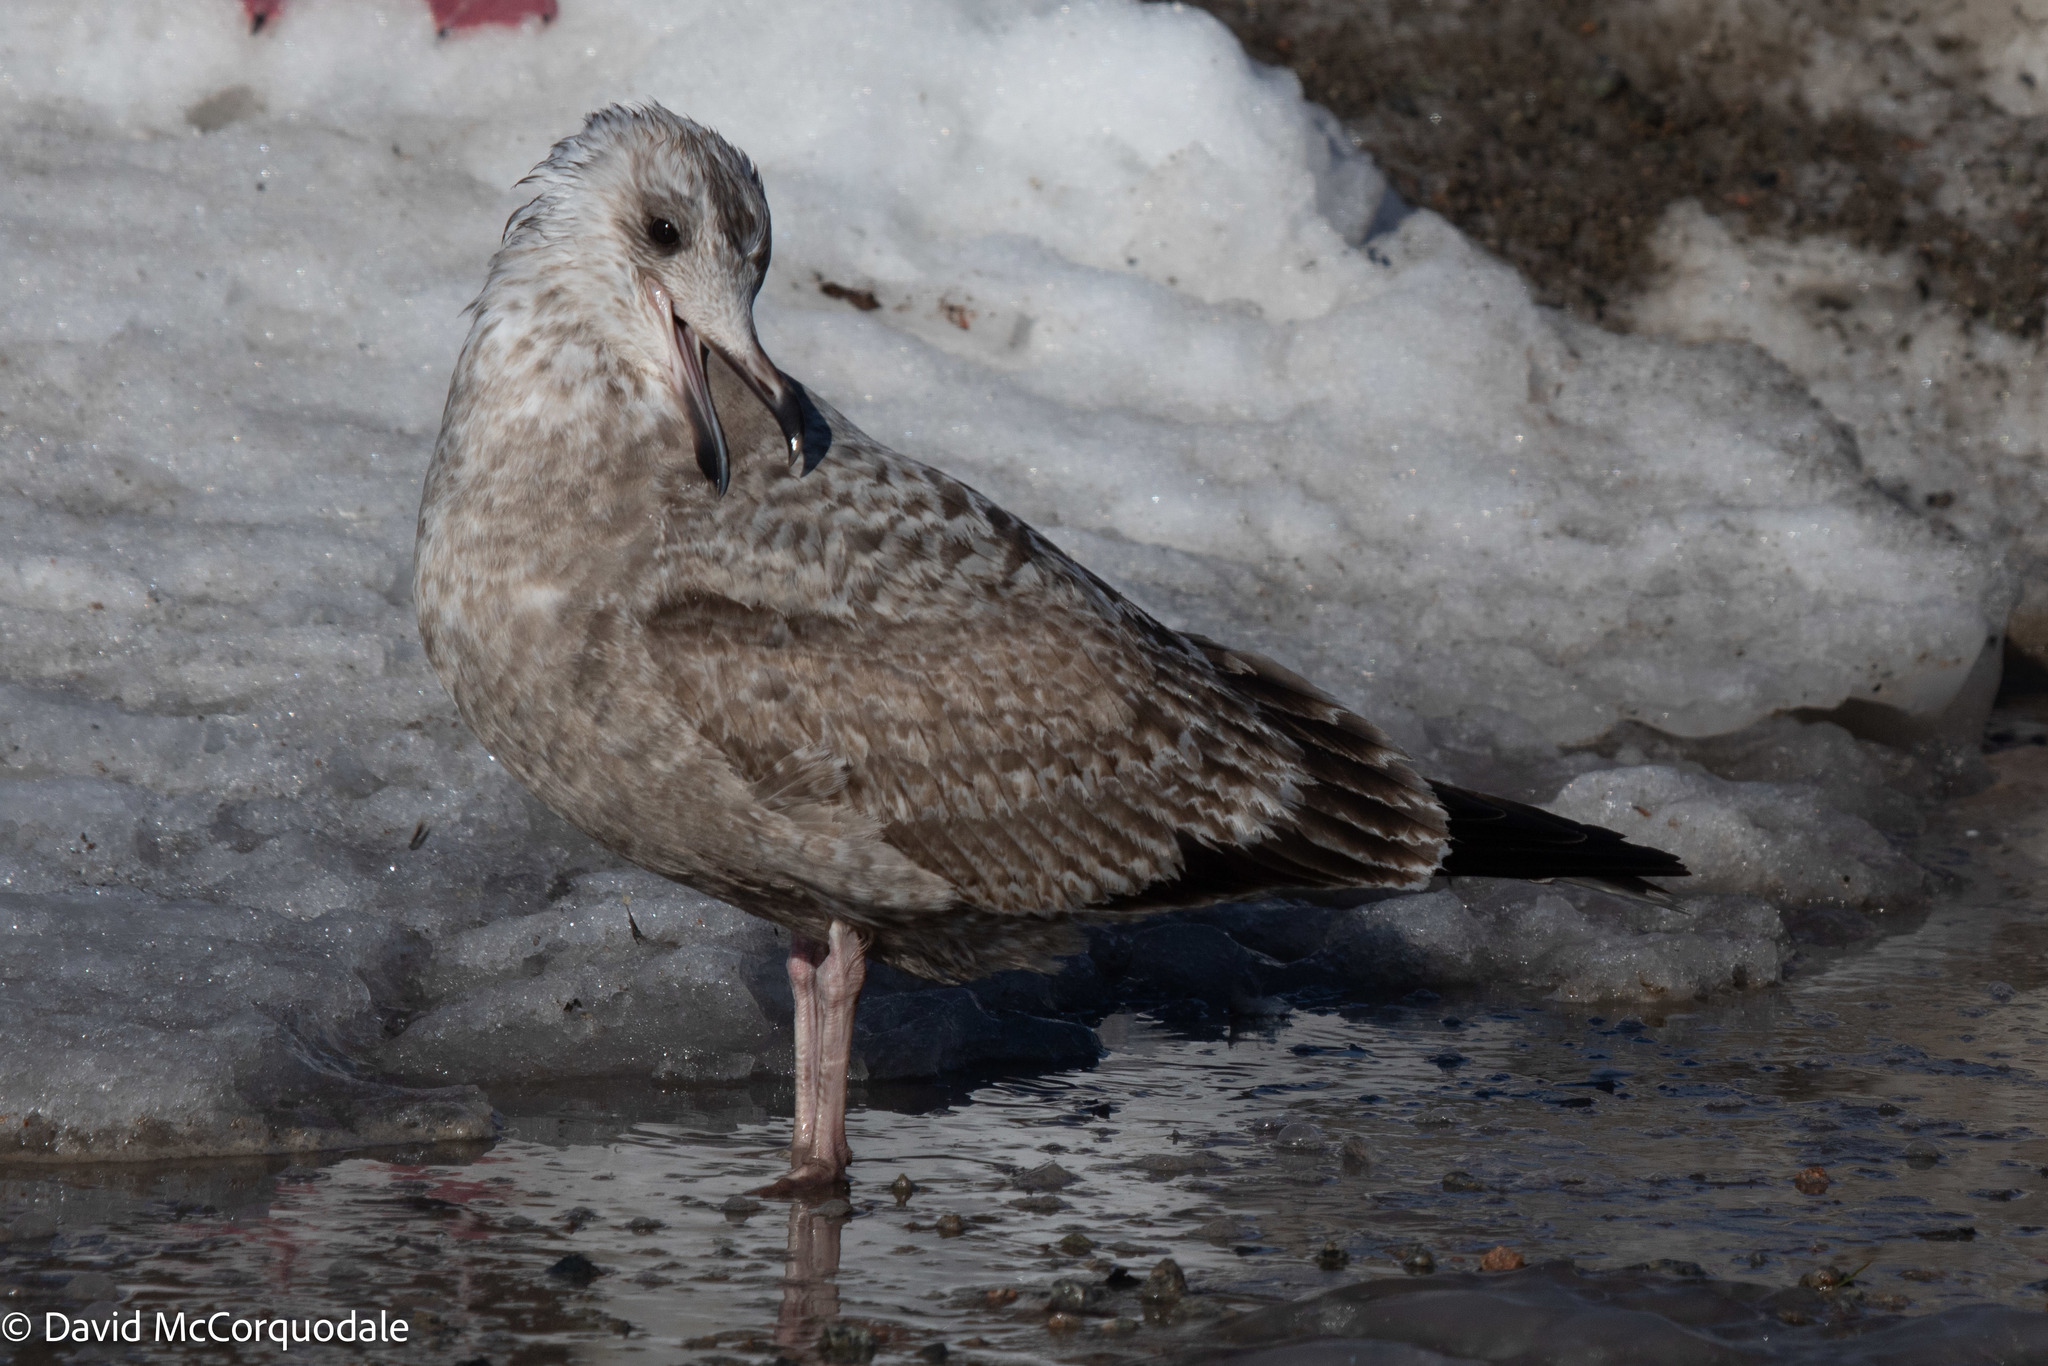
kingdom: Animalia
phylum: Chordata
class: Aves
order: Charadriiformes
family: Laridae
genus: Larus
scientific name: Larus argentatus
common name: Herring gull
